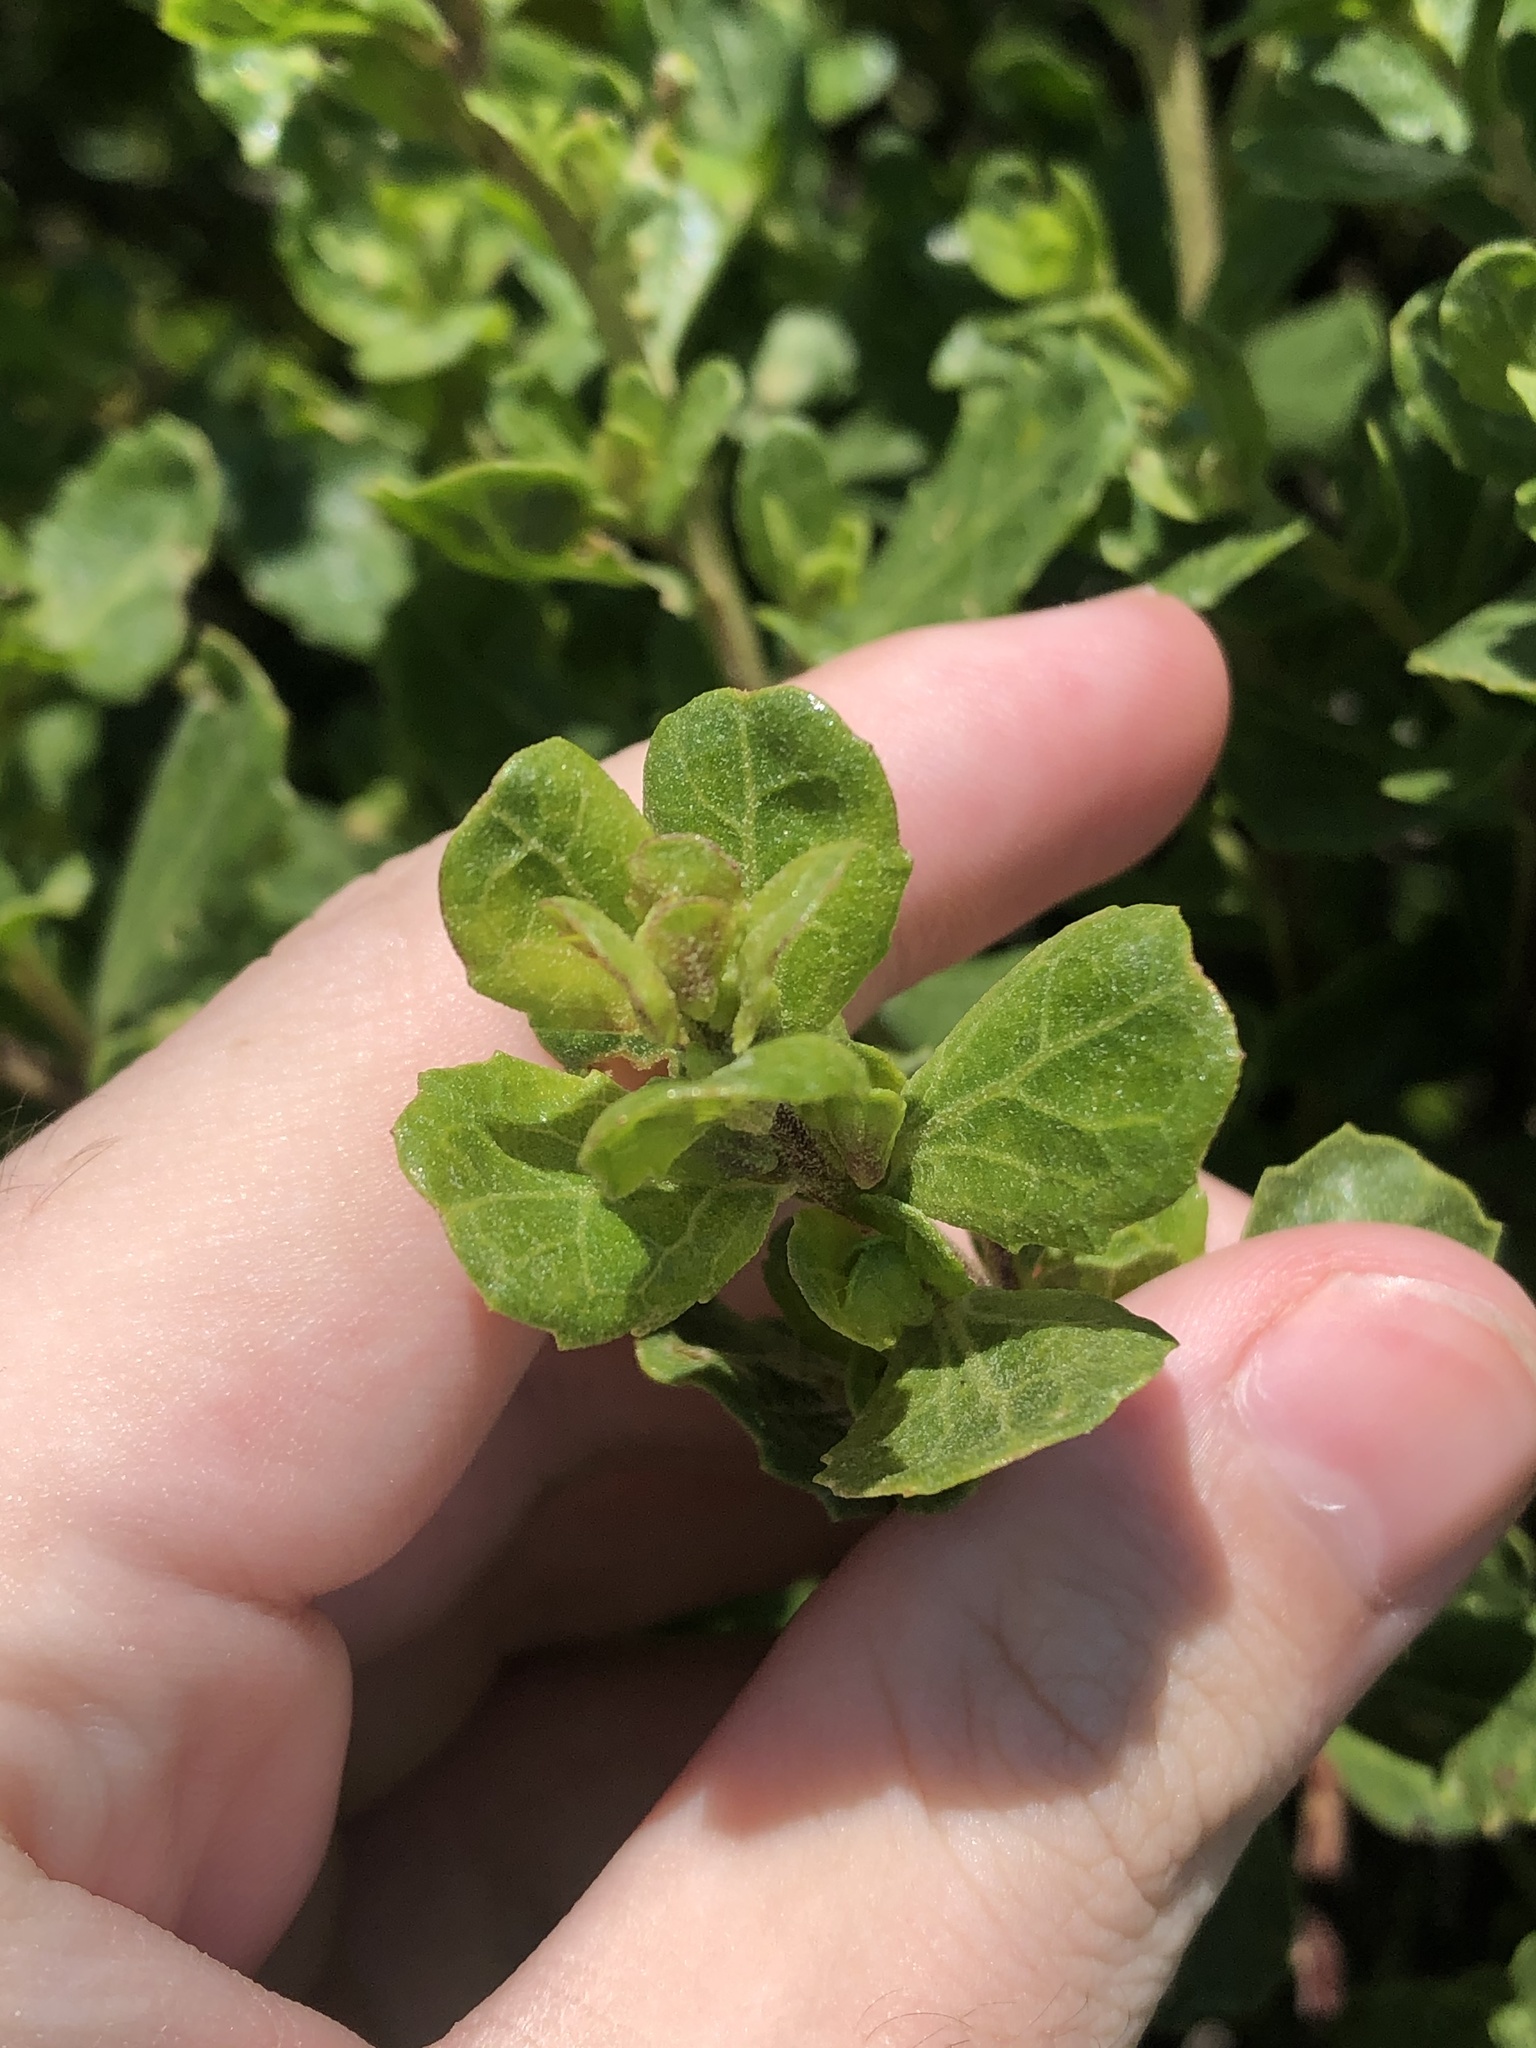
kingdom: Plantae
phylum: Tracheophyta
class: Magnoliopsida
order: Asterales
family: Asteraceae
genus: Baccharis
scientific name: Baccharis pilularis
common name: Coyotebrush
